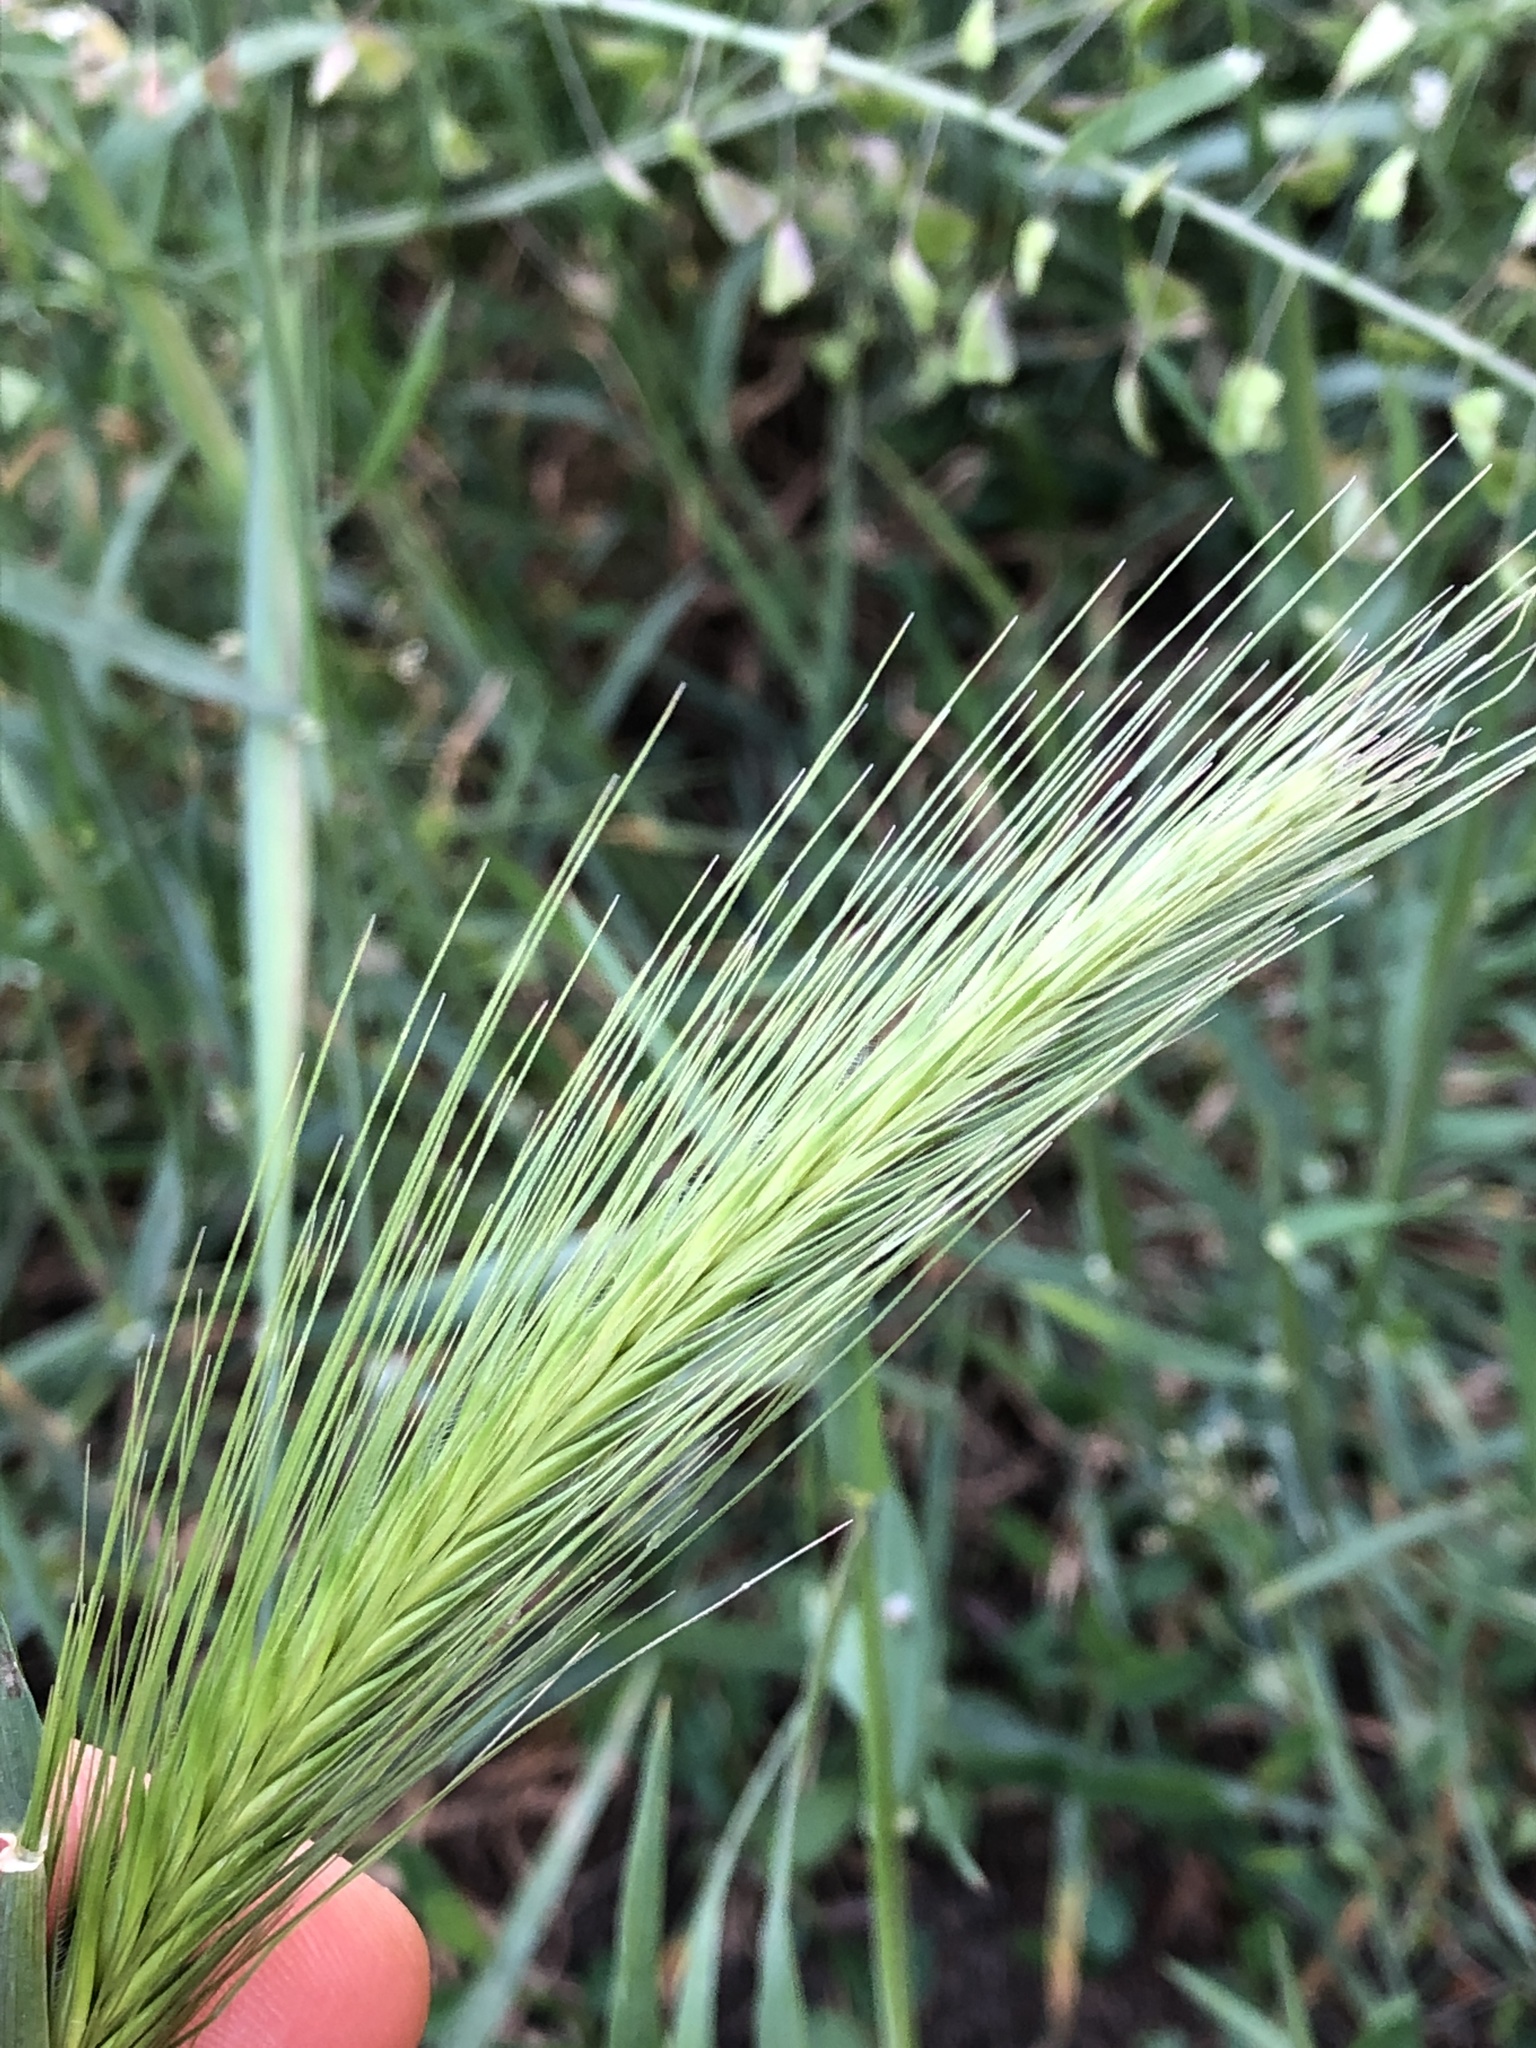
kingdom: Plantae
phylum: Tracheophyta
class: Liliopsida
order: Poales
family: Poaceae
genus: Hordeum
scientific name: Hordeum murinum
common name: Wall barley
